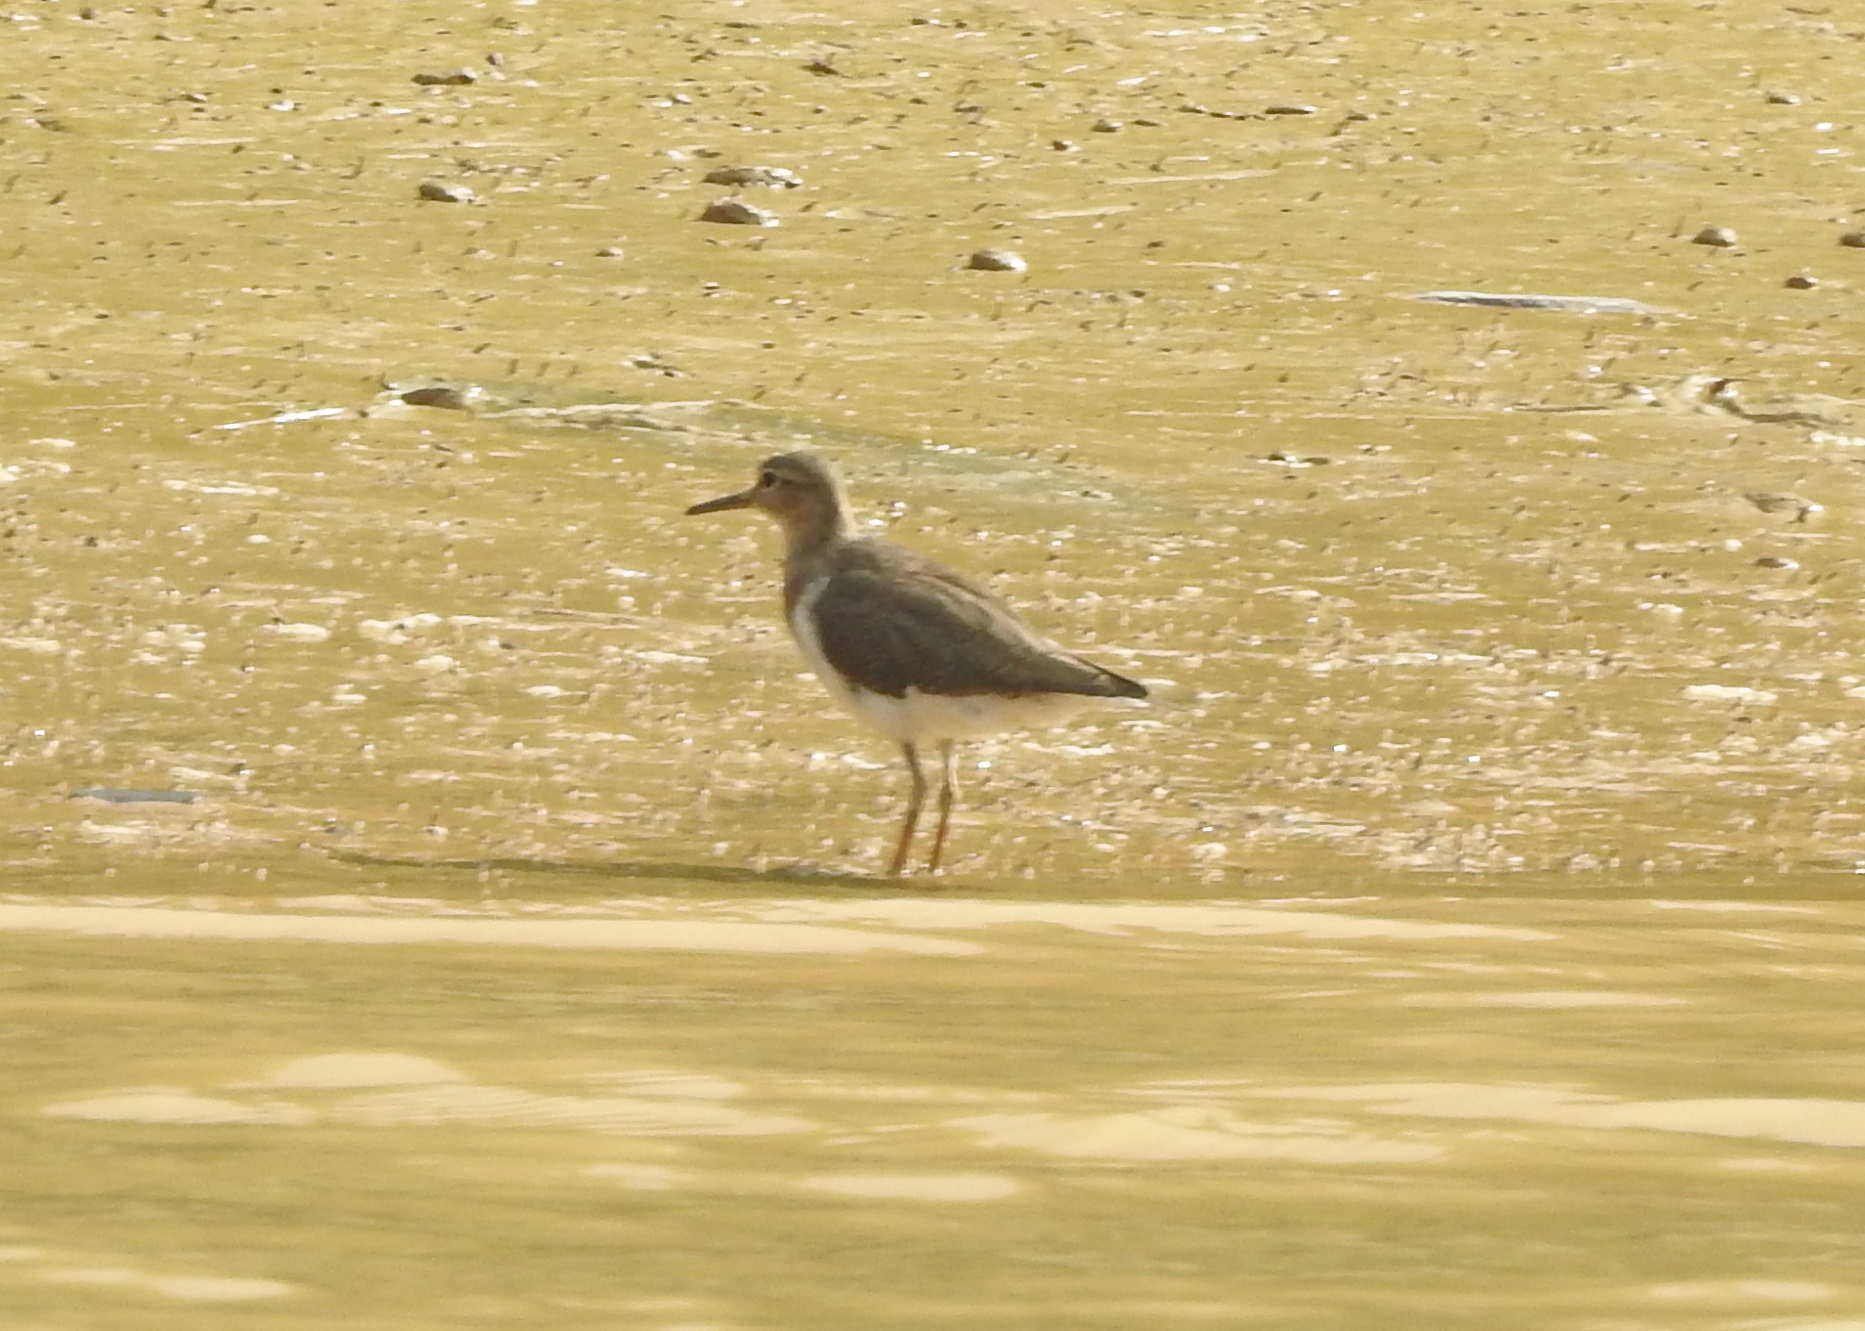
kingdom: Animalia
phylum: Chordata
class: Aves
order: Charadriiformes
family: Scolopacidae
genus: Actitis
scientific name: Actitis hypoleucos
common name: Common sandpiper
